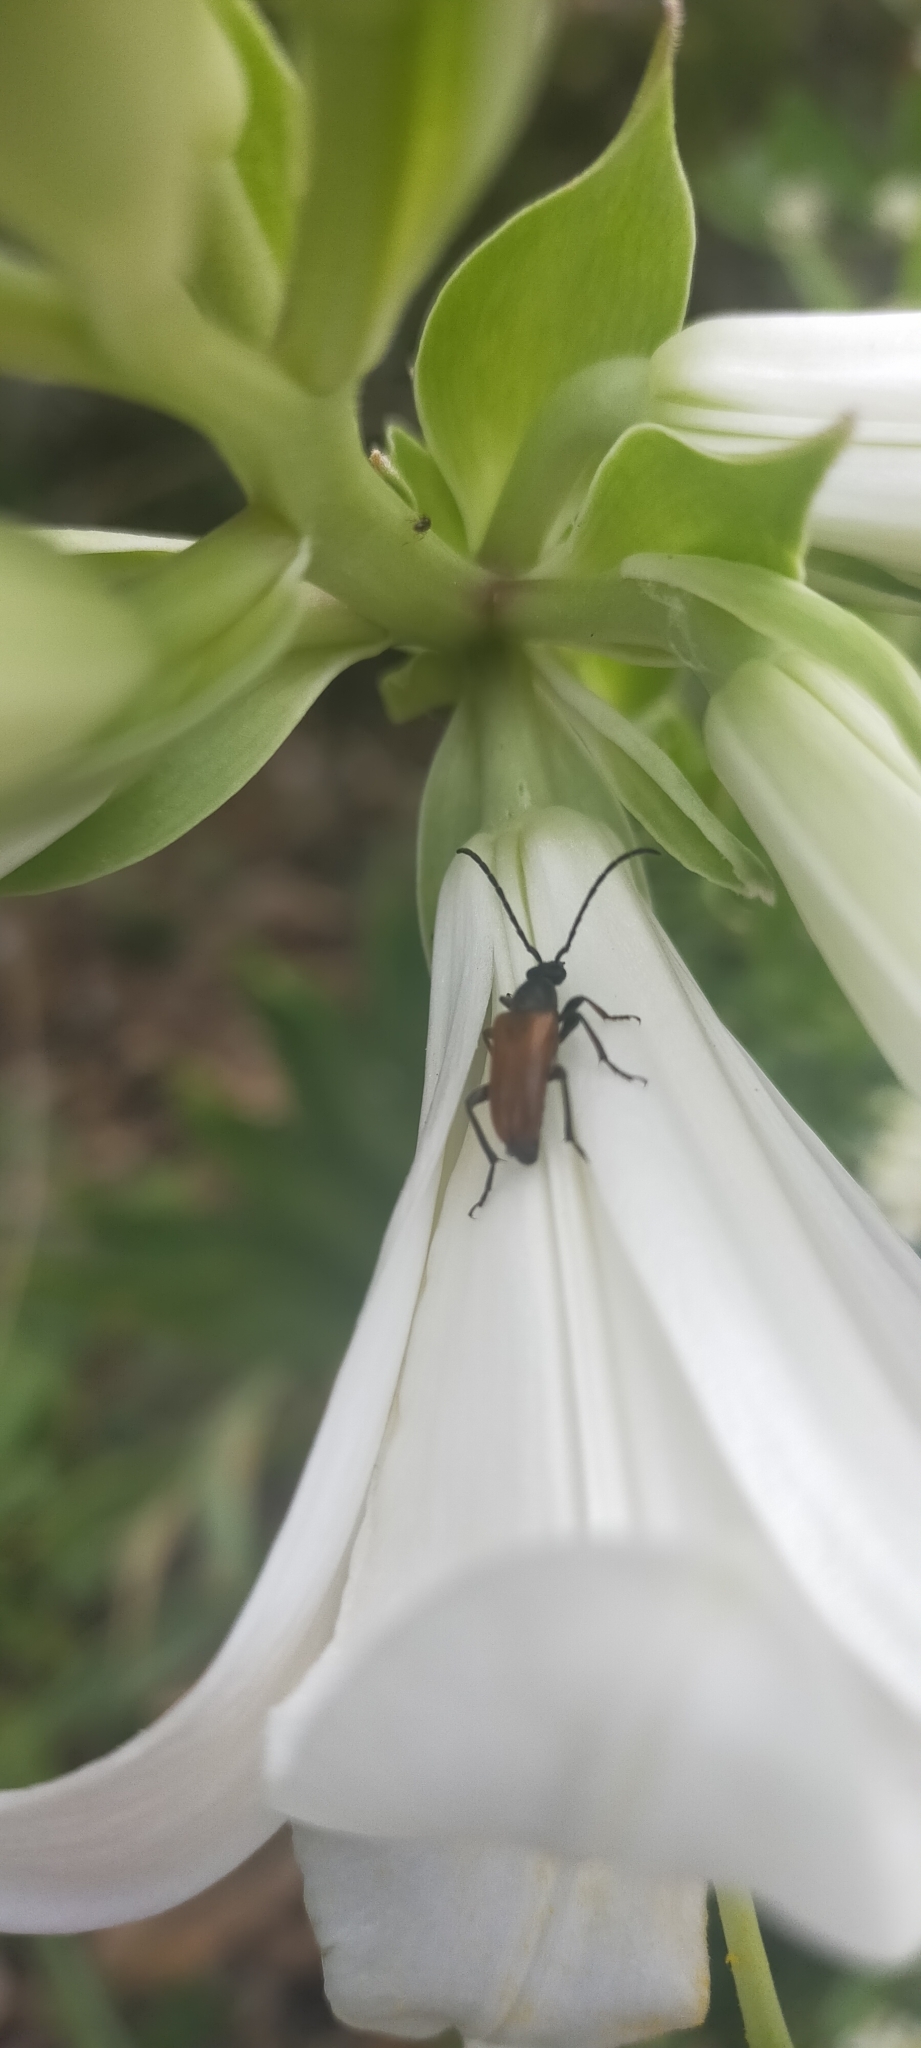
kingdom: Animalia
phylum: Arthropoda
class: Insecta
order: Coleoptera
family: Cerambycidae
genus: Pseudovadonia
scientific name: Pseudovadonia livida
